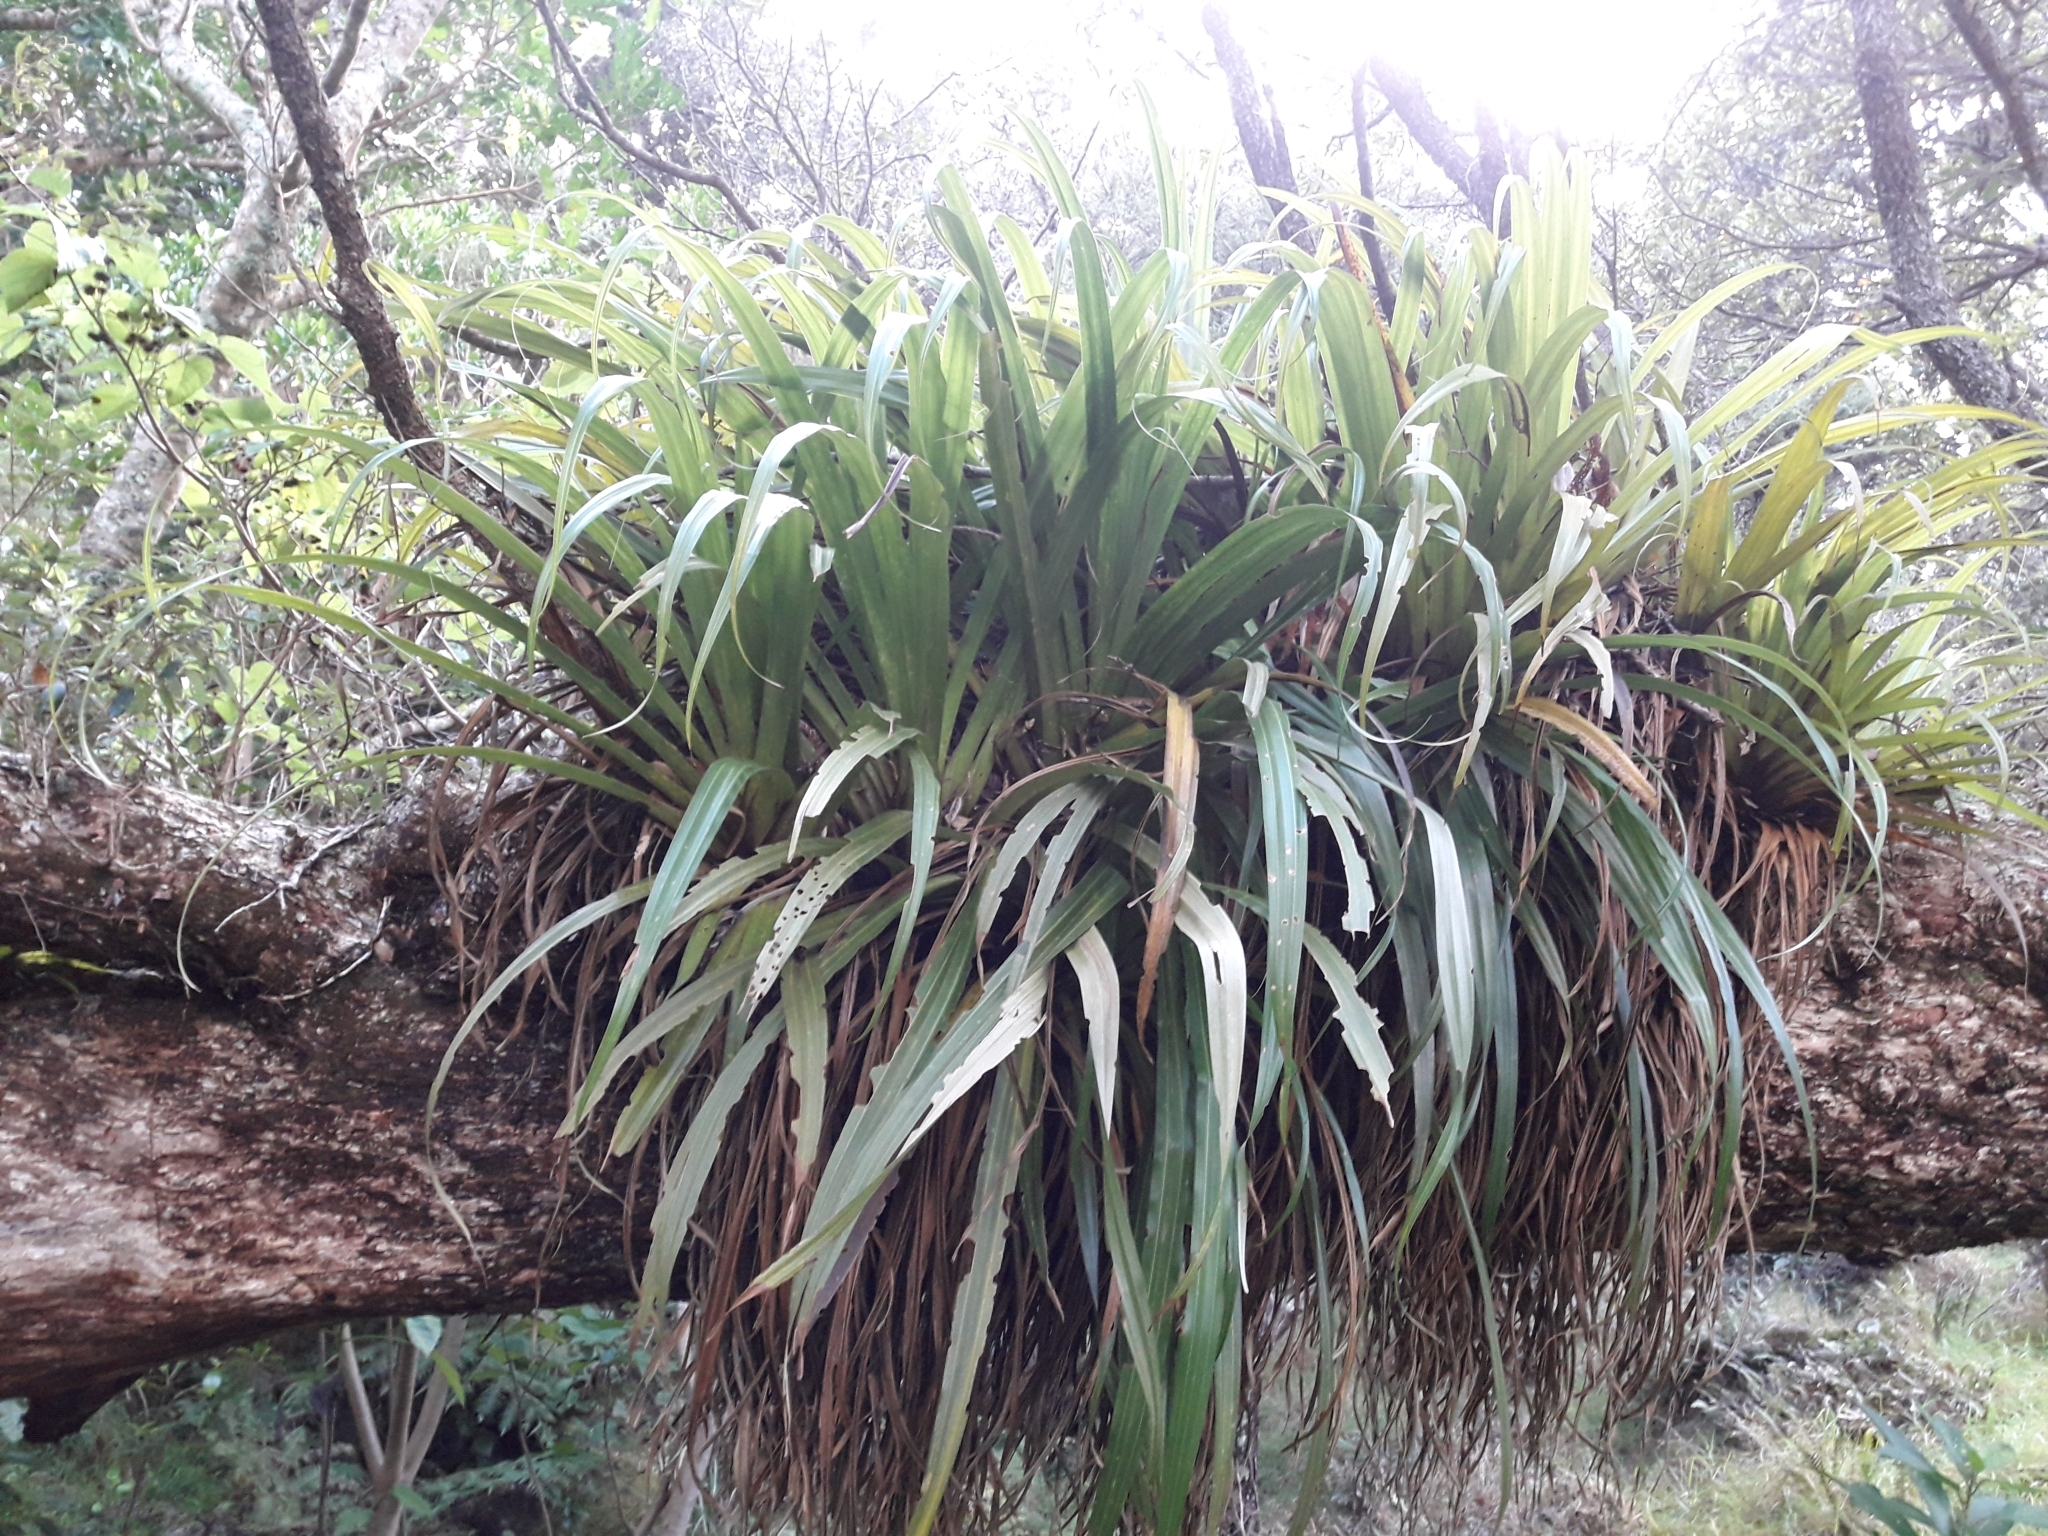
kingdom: Plantae
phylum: Tracheophyta
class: Liliopsida
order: Asparagales
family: Asteliaceae
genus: Astelia
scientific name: Astelia hastata
